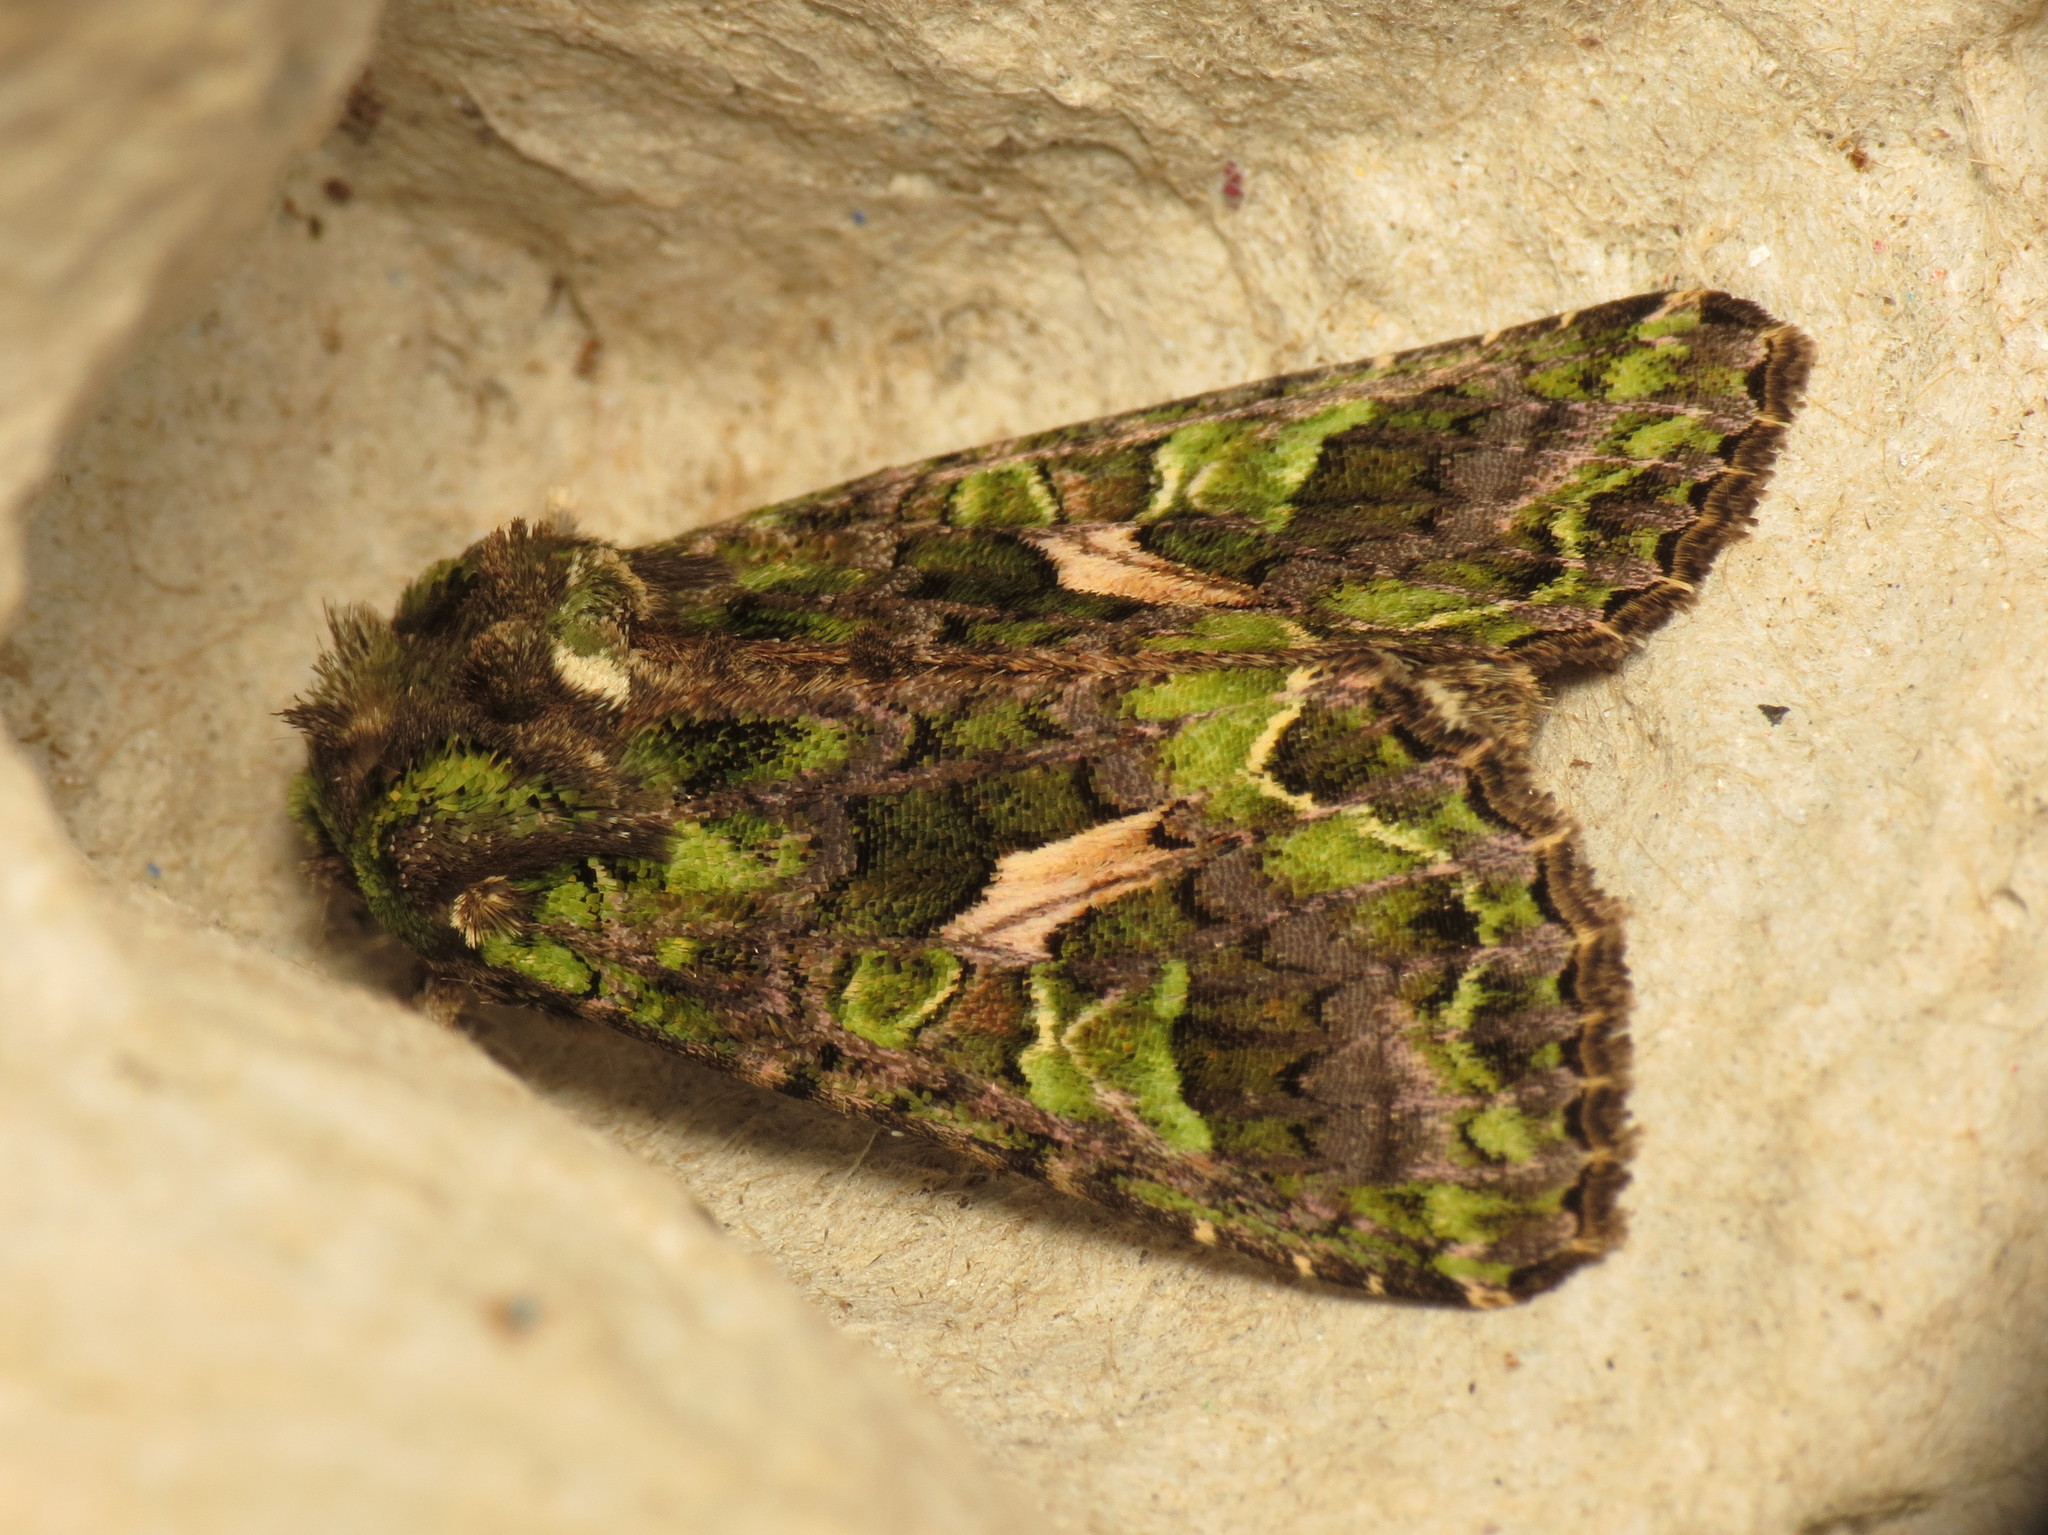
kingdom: Animalia
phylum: Arthropoda
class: Insecta
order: Lepidoptera
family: Noctuidae
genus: Trachea
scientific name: Trachea atriplicis
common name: Orache moth
